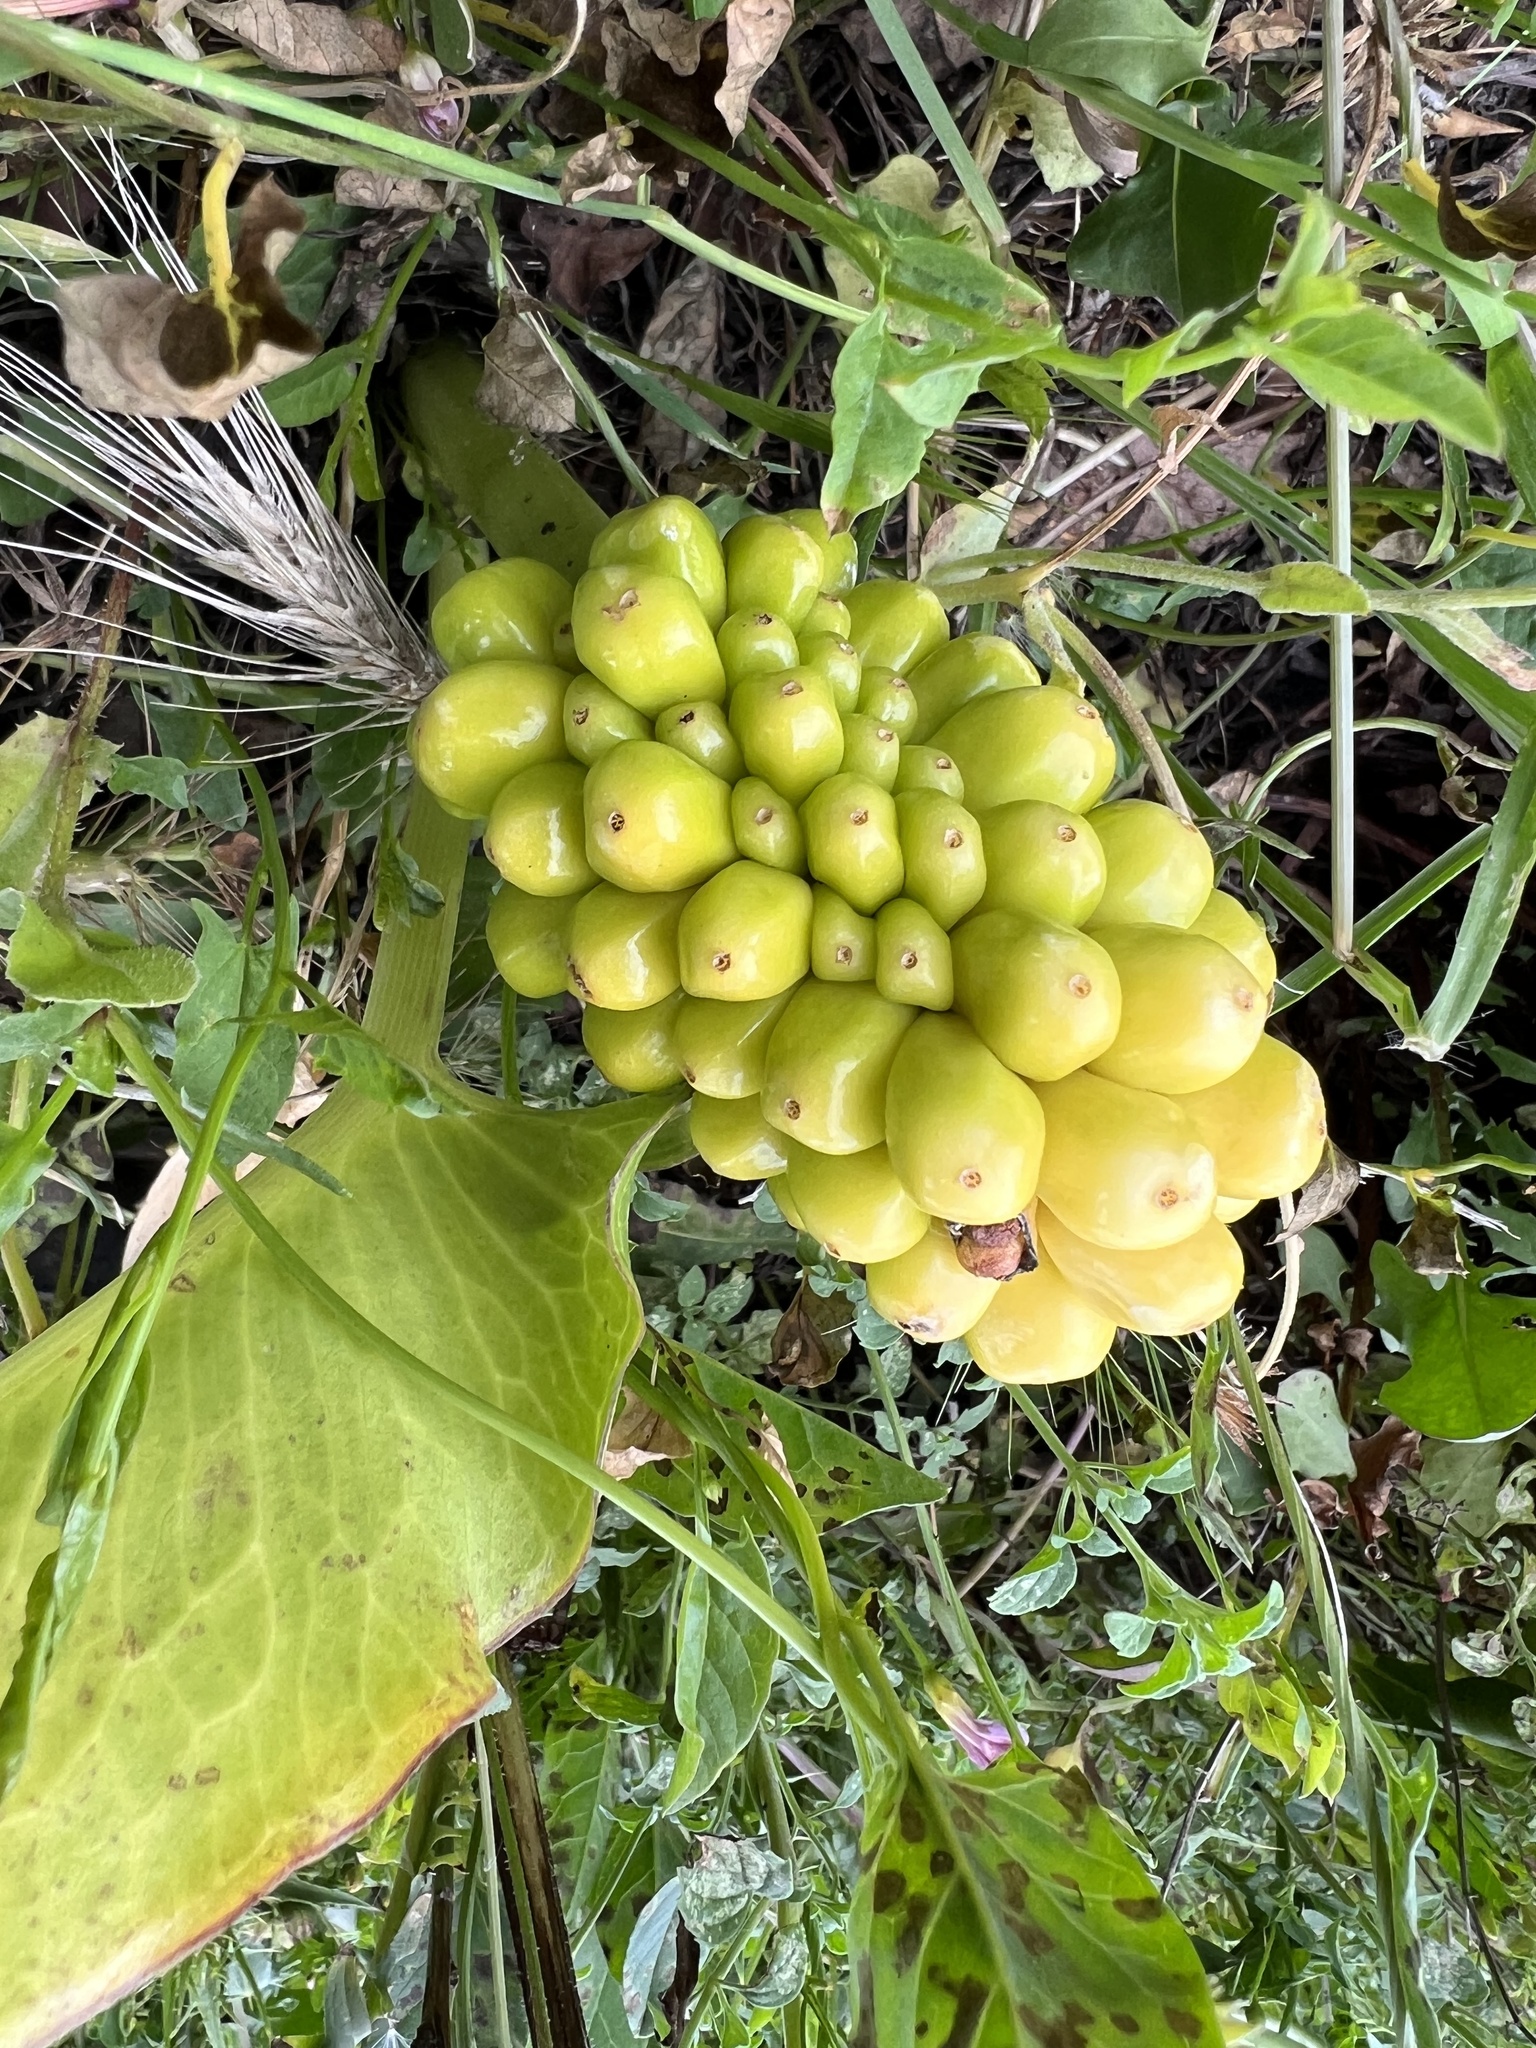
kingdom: Plantae
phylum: Tracheophyta
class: Liliopsida
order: Alismatales
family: Araceae
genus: Arum
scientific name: Arum pictum
